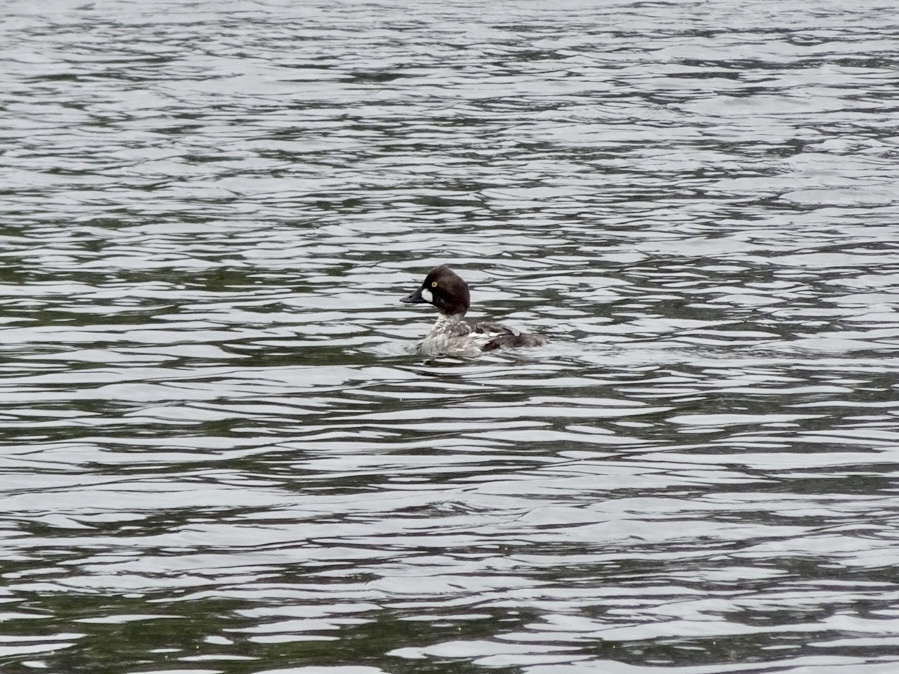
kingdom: Animalia
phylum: Chordata
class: Aves
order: Anseriformes
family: Anatidae
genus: Bucephala
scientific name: Bucephala clangula
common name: Common goldeneye
